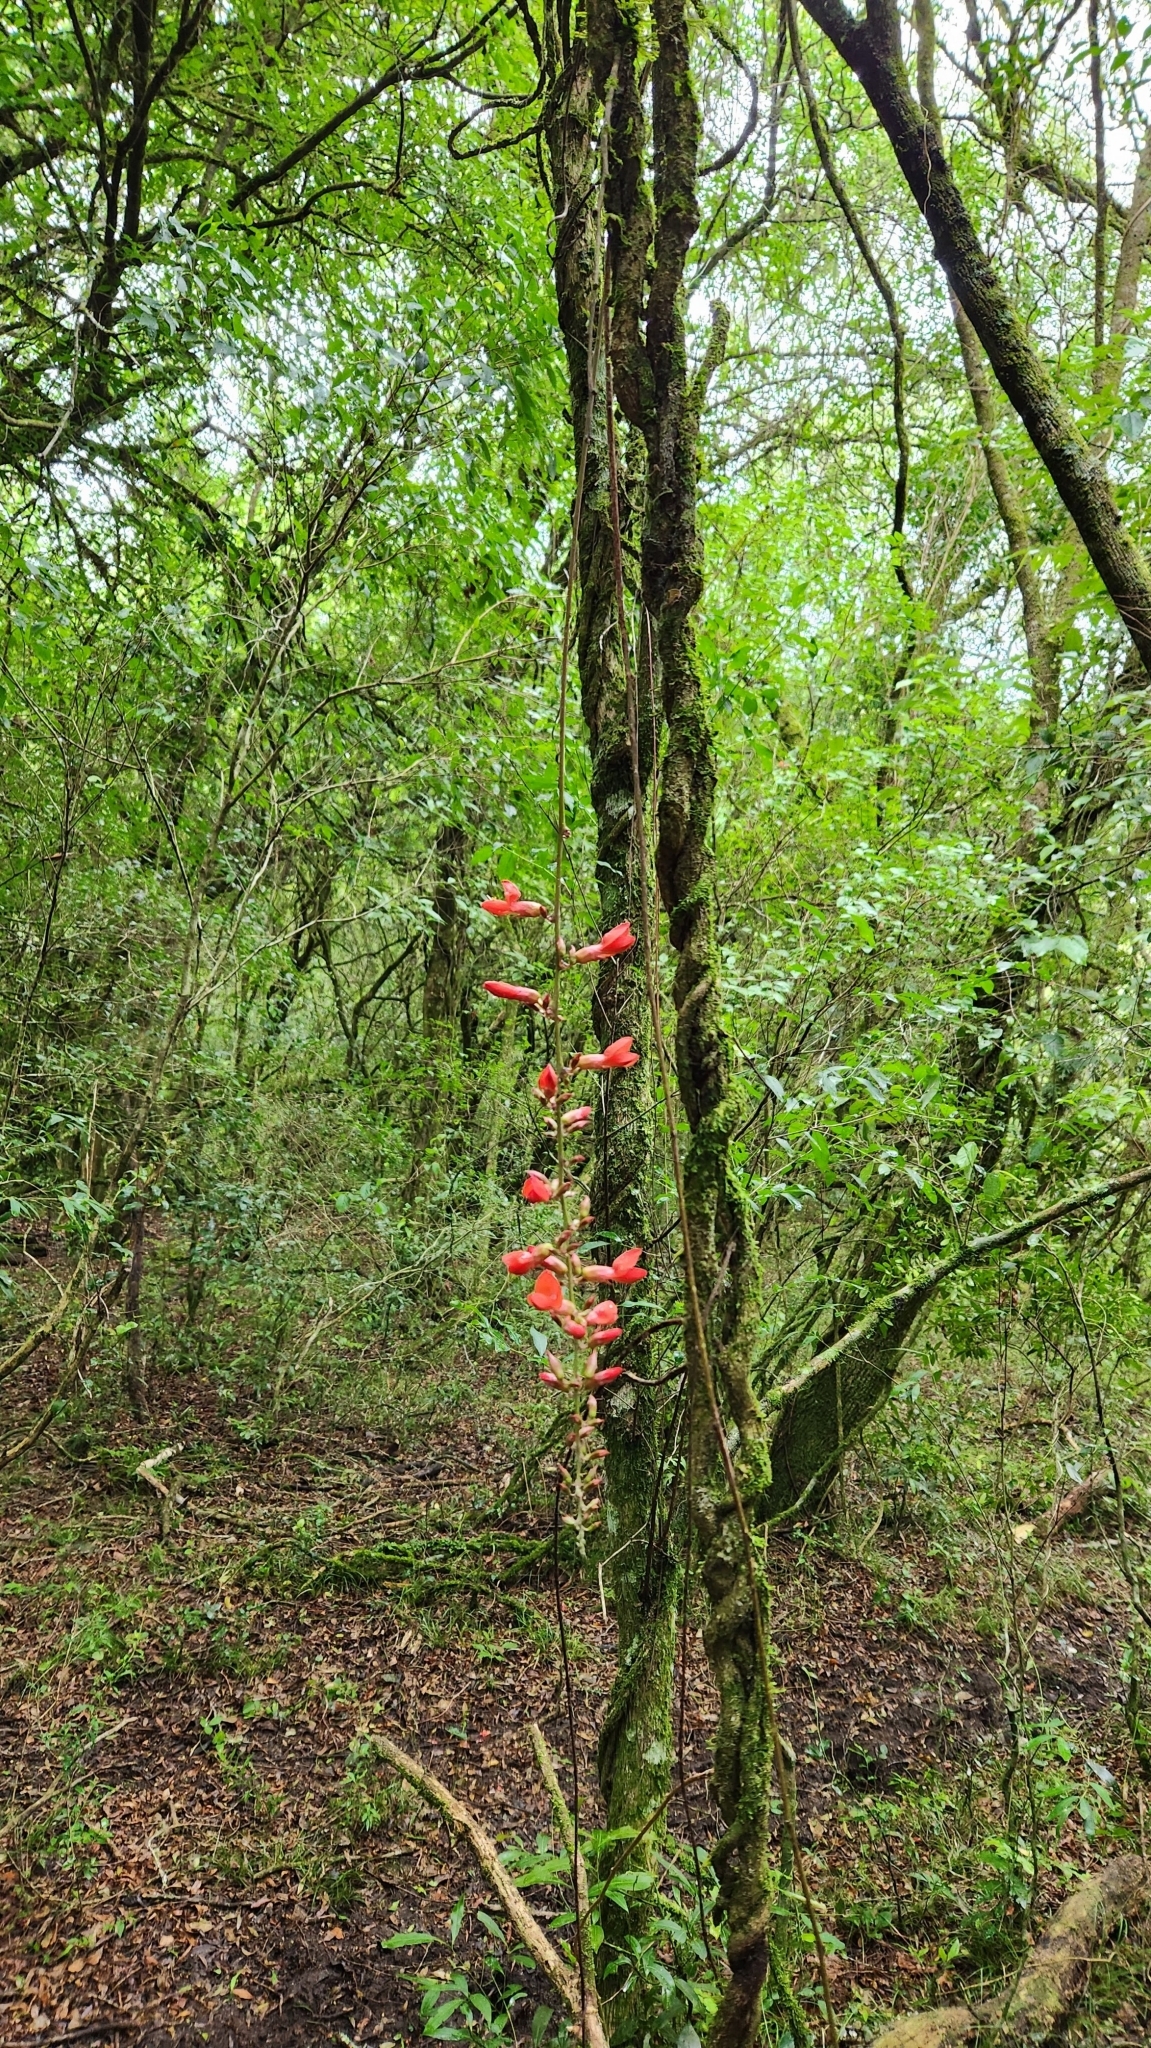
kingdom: Plantae
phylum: Tracheophyta
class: Magnoliopsida
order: Fabales
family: Fabaceae
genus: Camptosema
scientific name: Camptosema rubicundum
